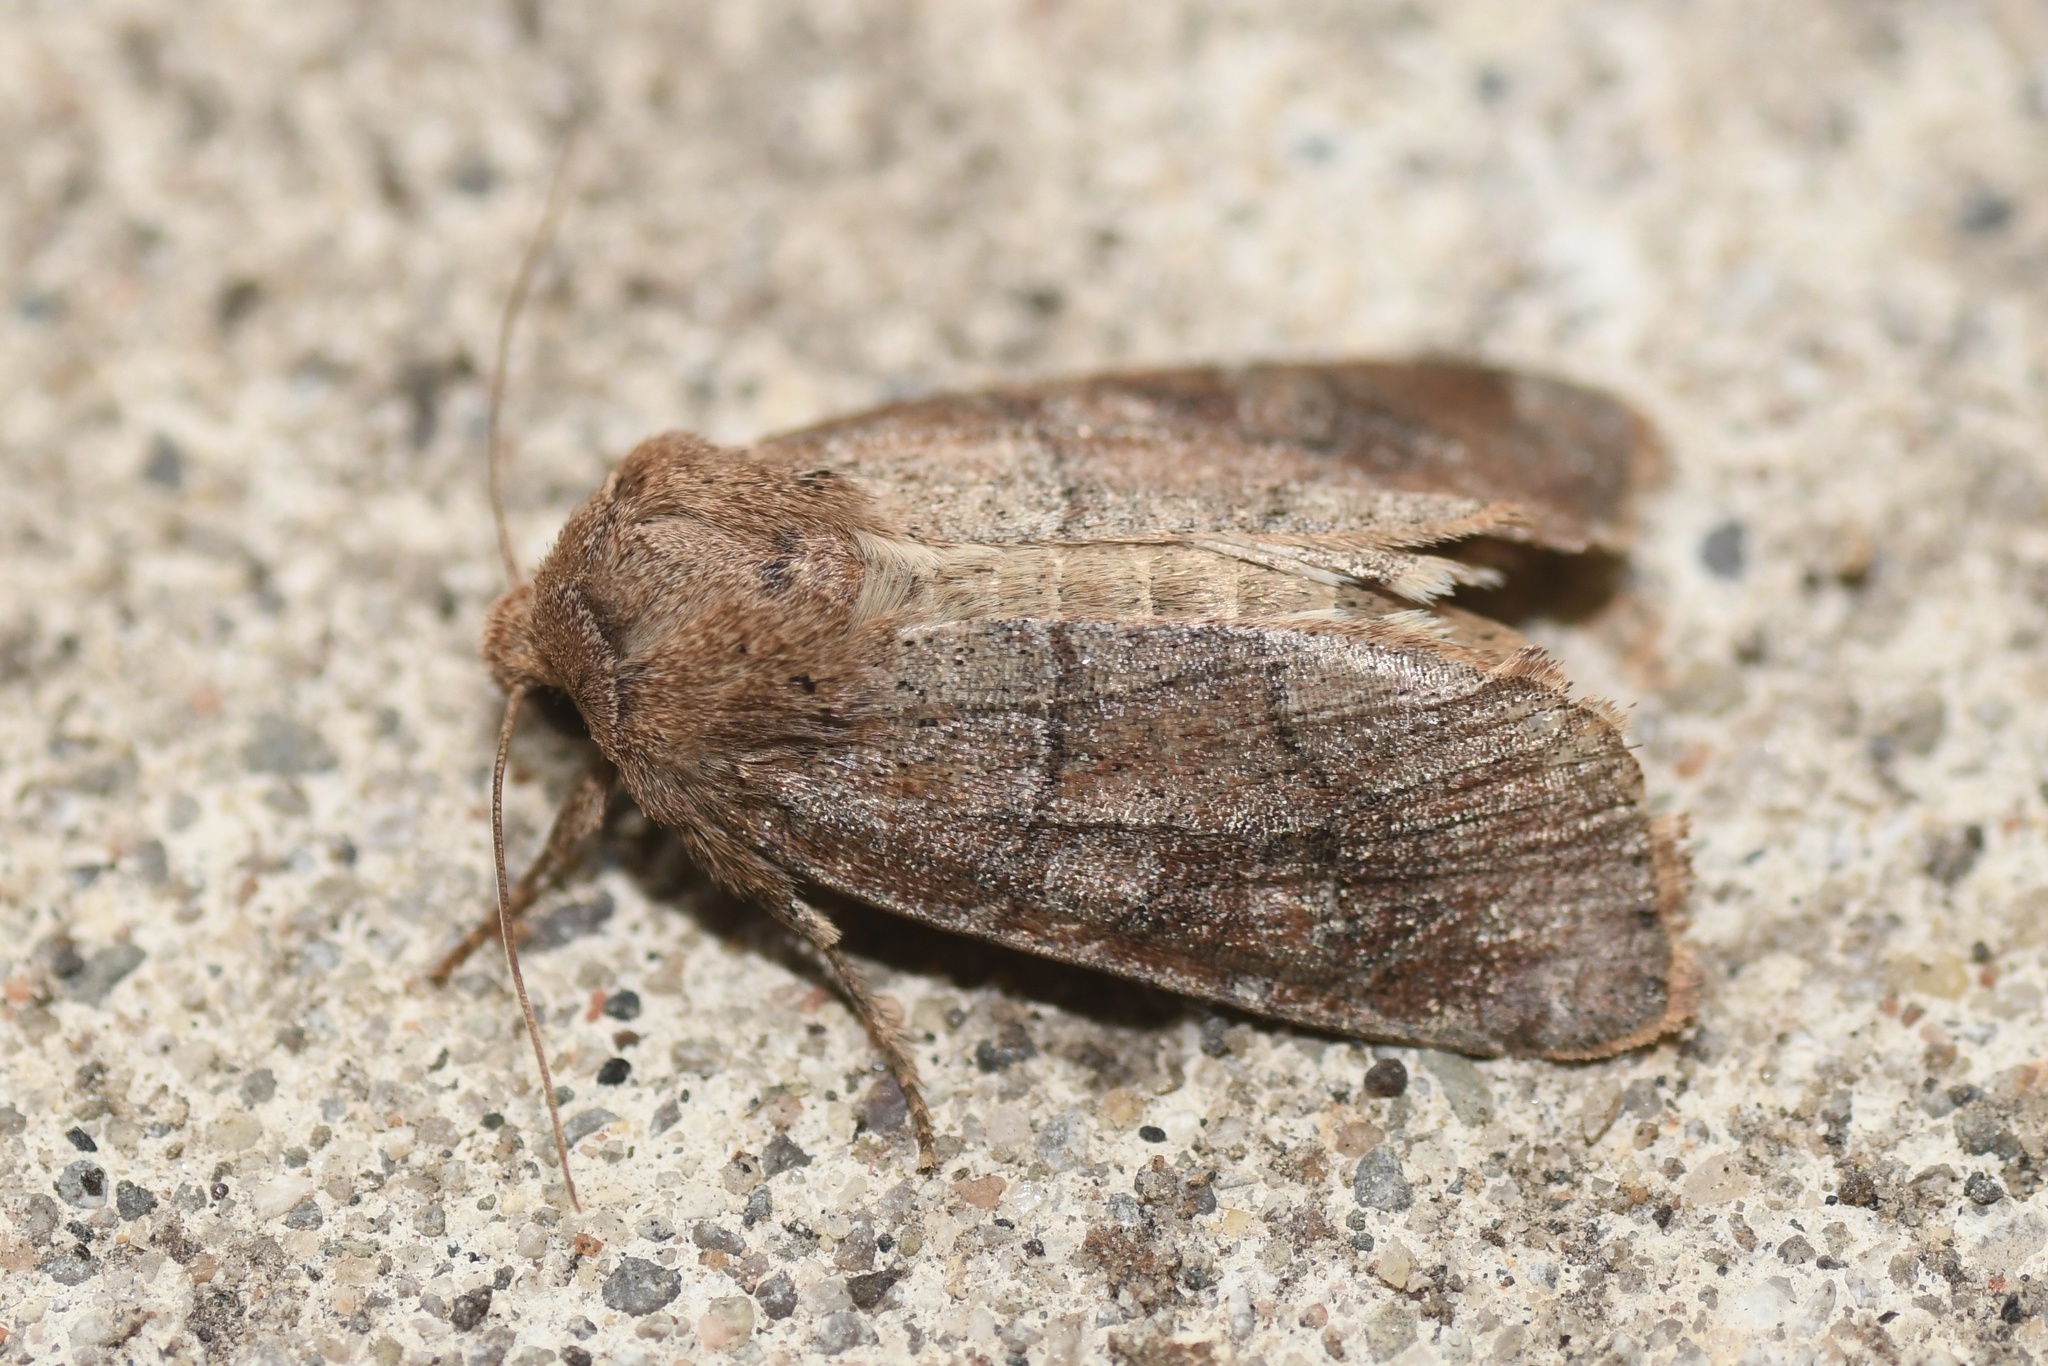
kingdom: Animalia
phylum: Arthropoda
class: Insecta
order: Lepidoptera
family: Noctuidae
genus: Crocigrapha
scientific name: Crocigrapha normani
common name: Norman's quaker
